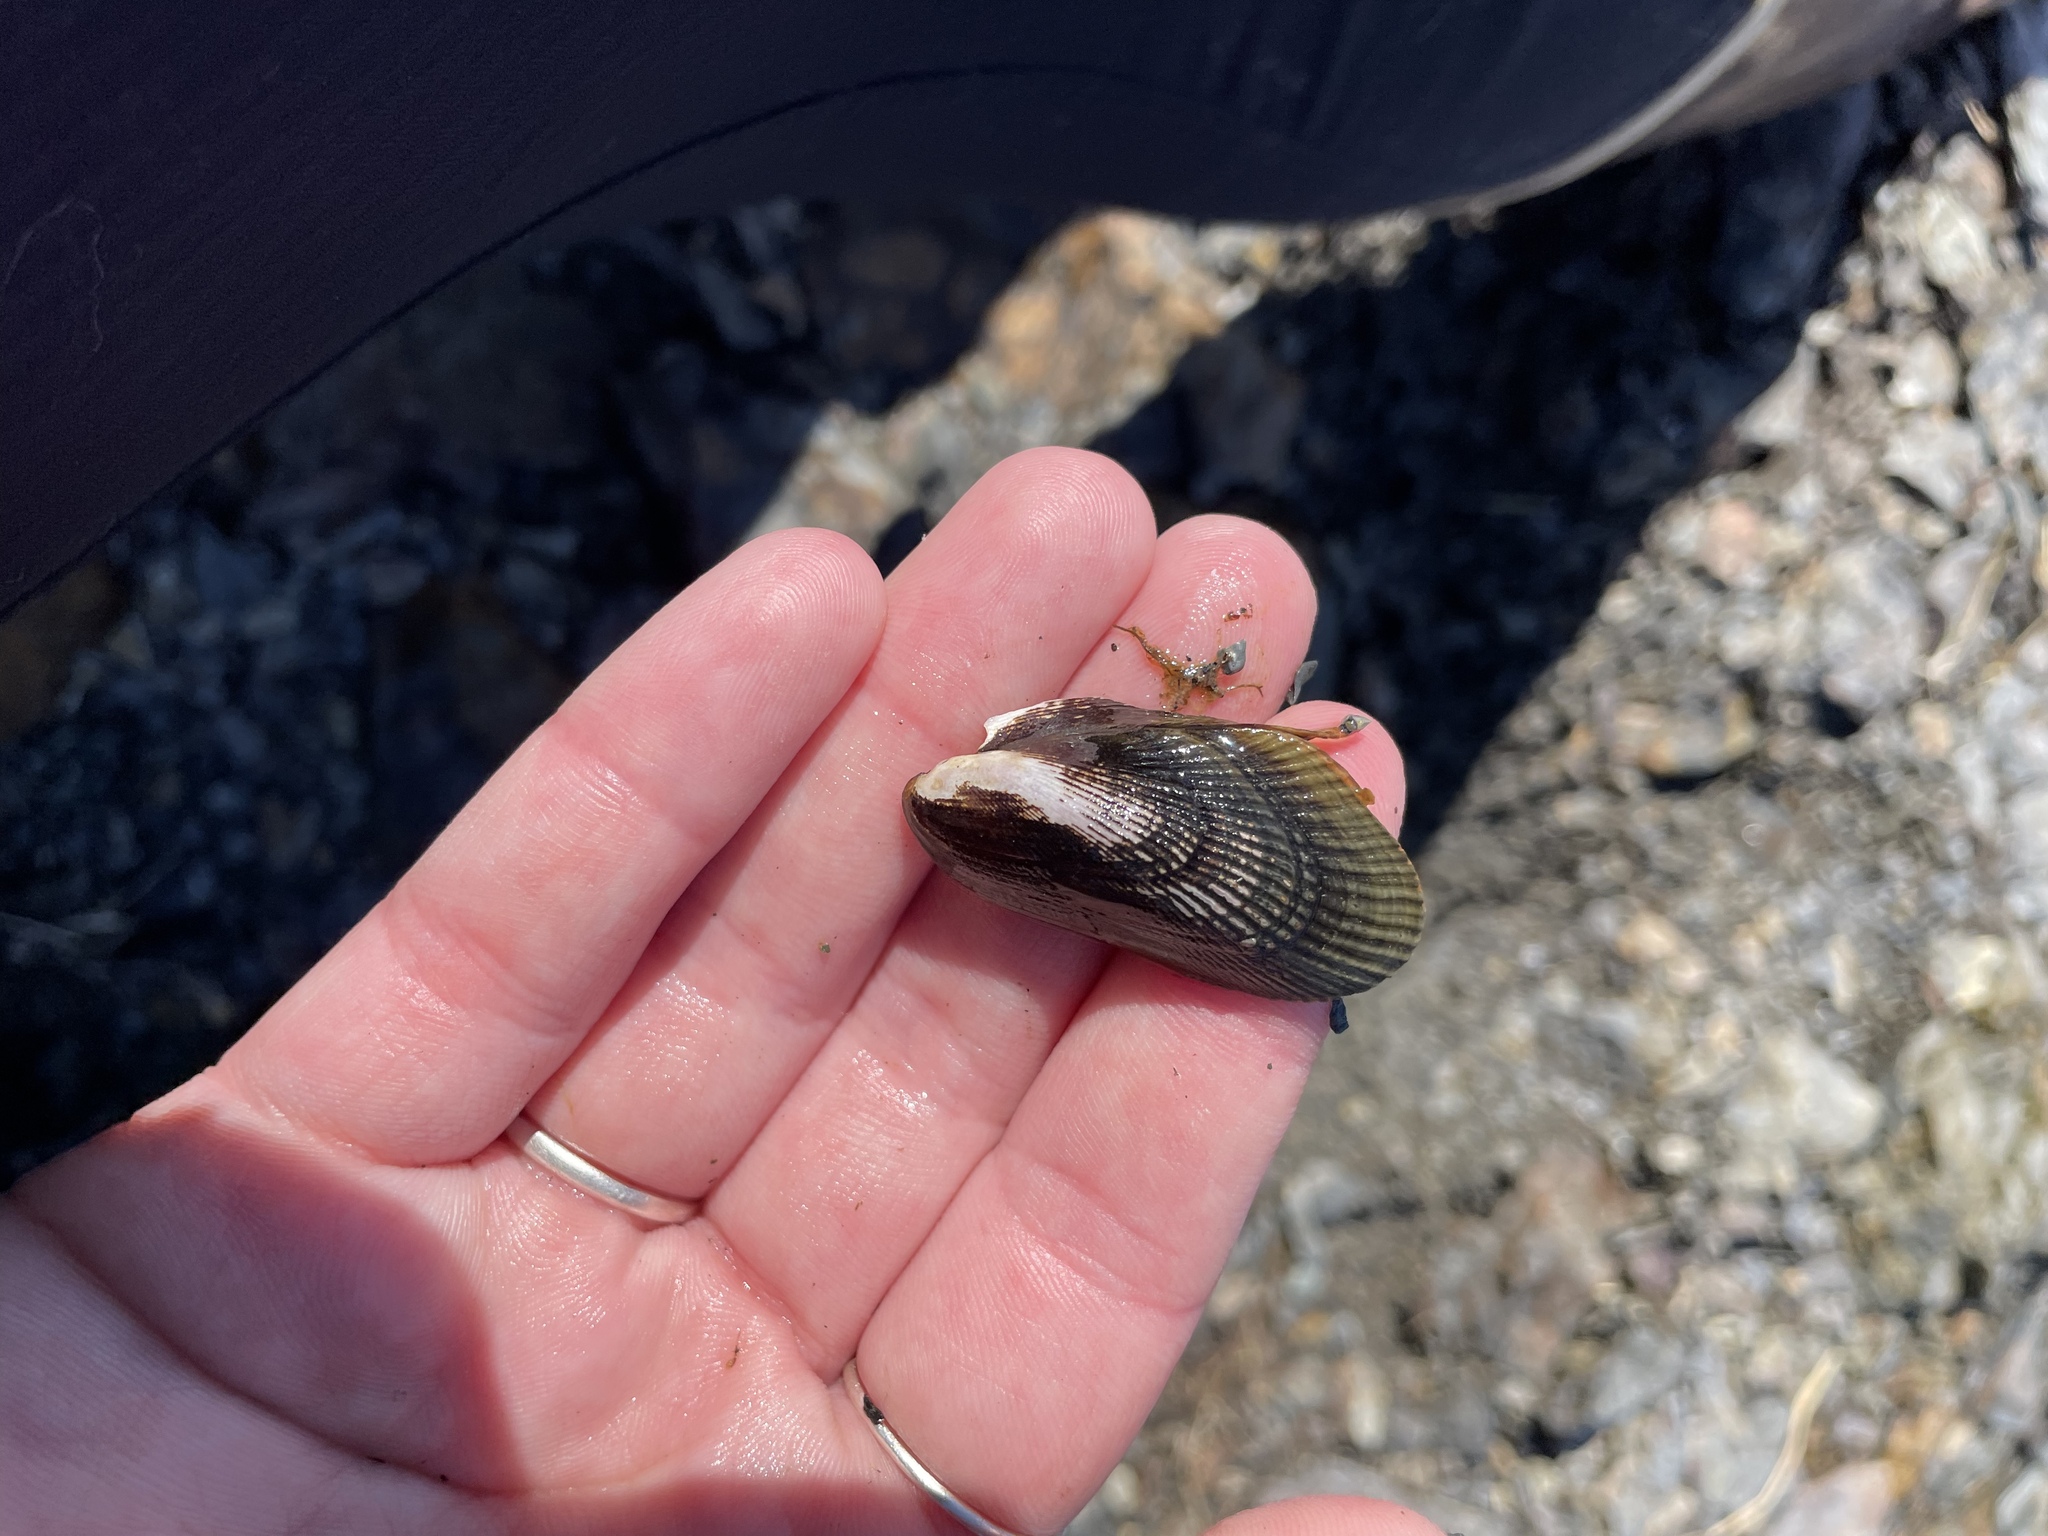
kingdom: Animalia
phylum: Mollusca
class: Bivalvia
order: Mytilida
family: Mytilidae
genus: Geukensia
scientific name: Geukensia demissa
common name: Ribbed mussel
